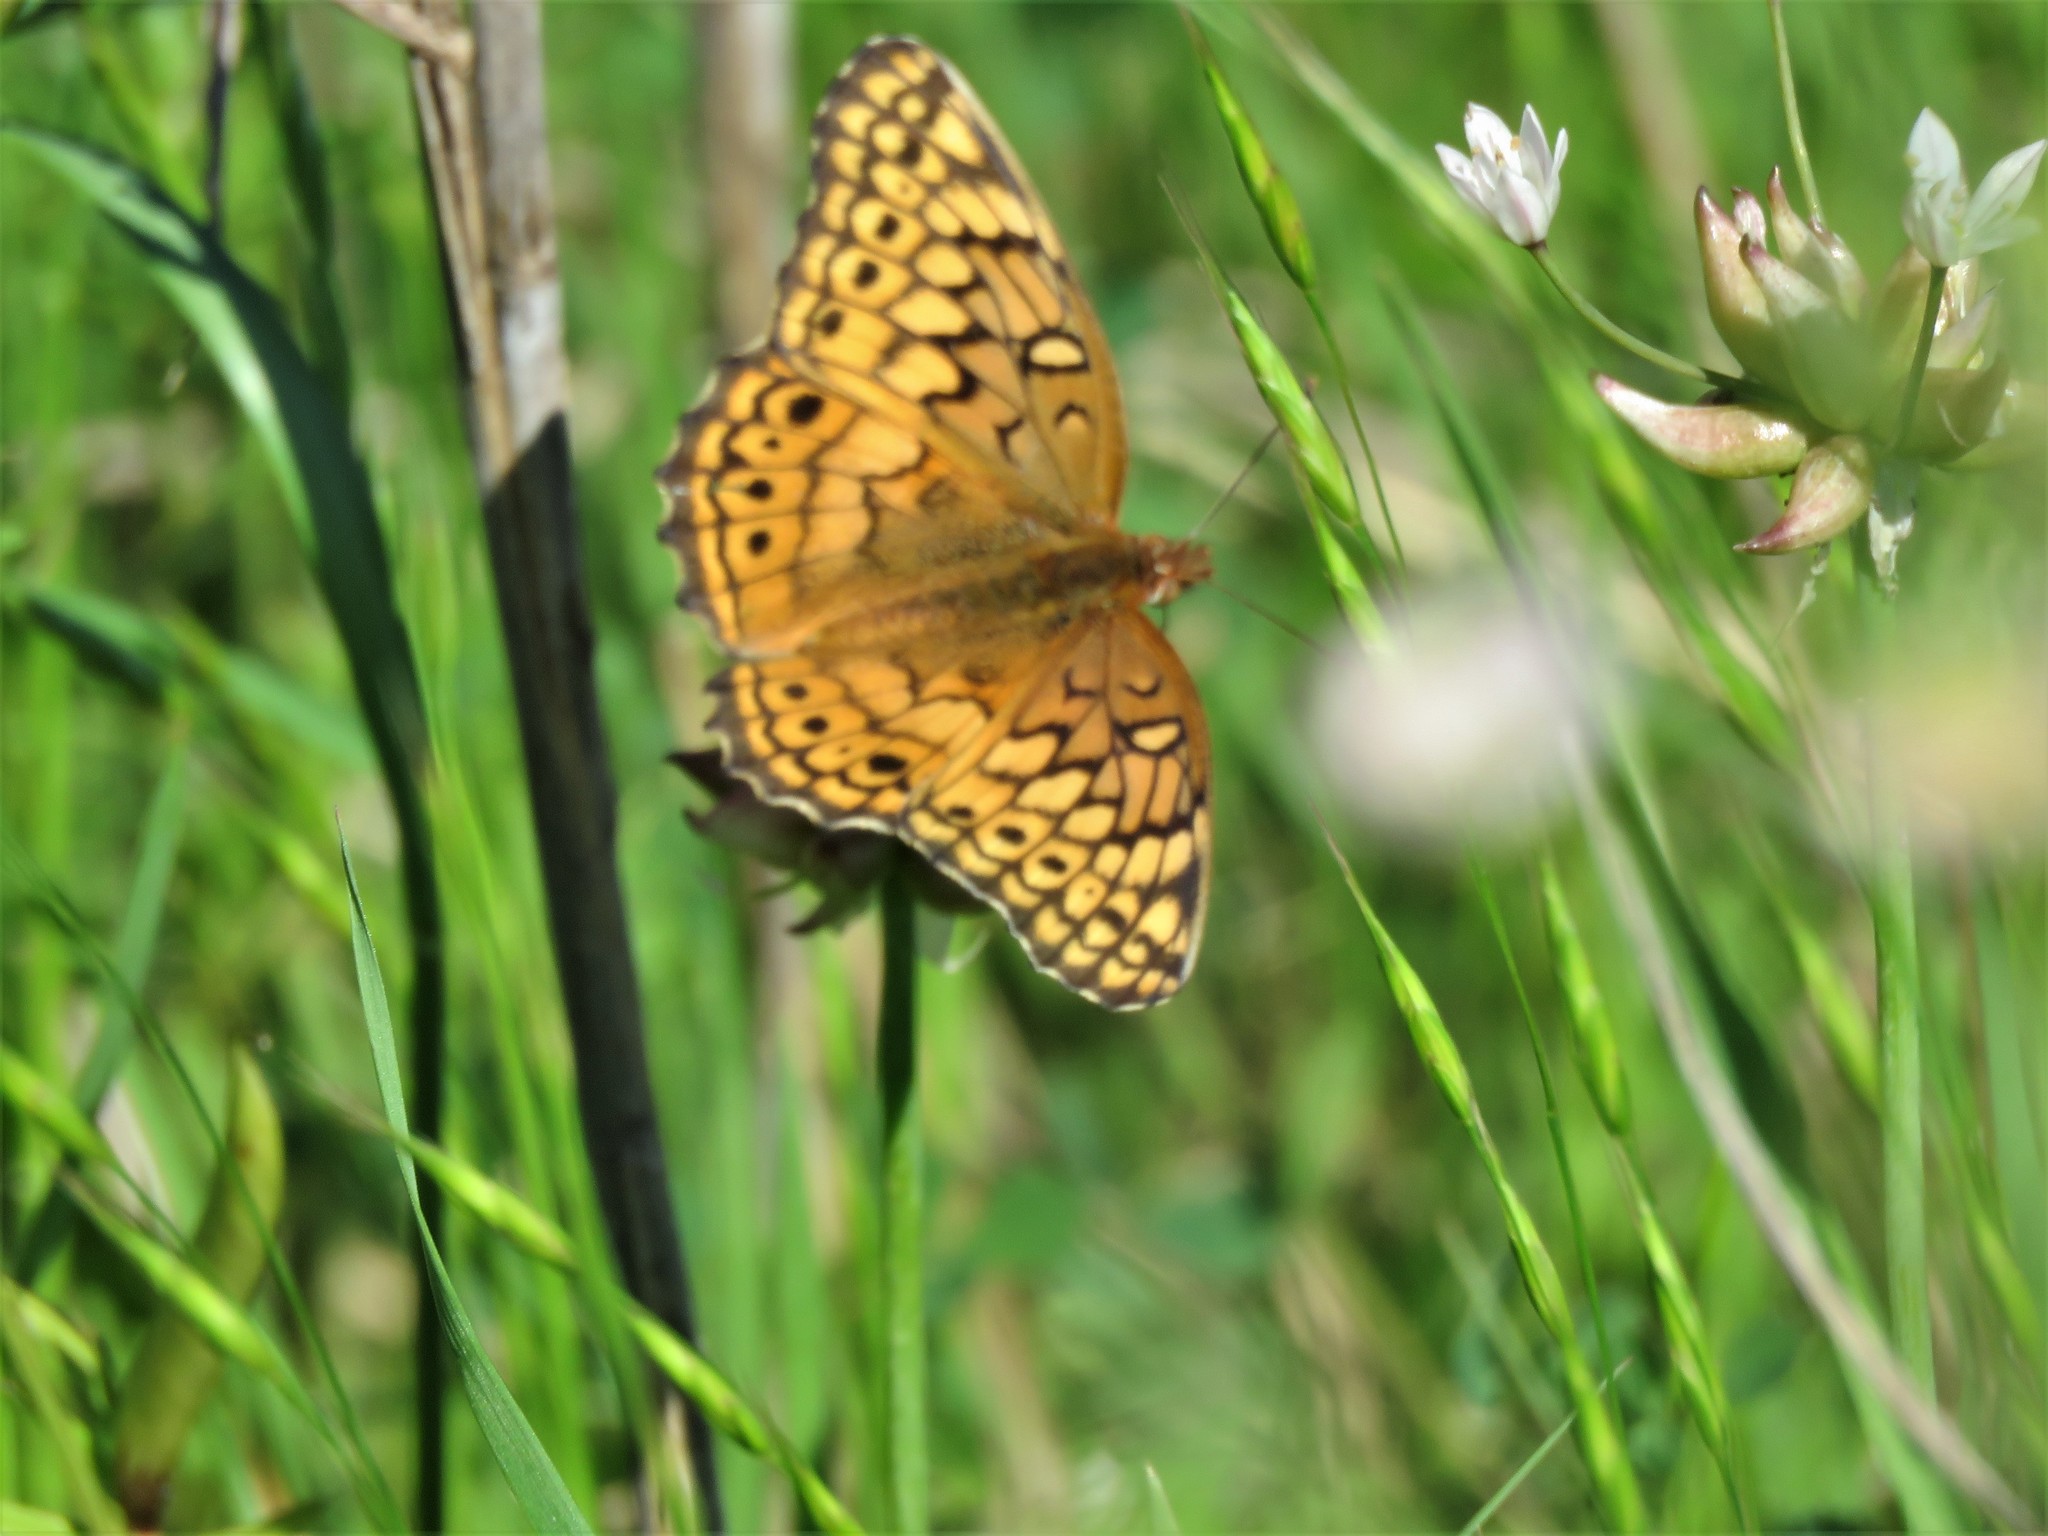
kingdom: Animalia
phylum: Arthropoda
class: Insecta
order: Lepidoptera
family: Nymphalidae
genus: Euptoieta
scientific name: Euptoieta claudia
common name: Variegated fritillary
